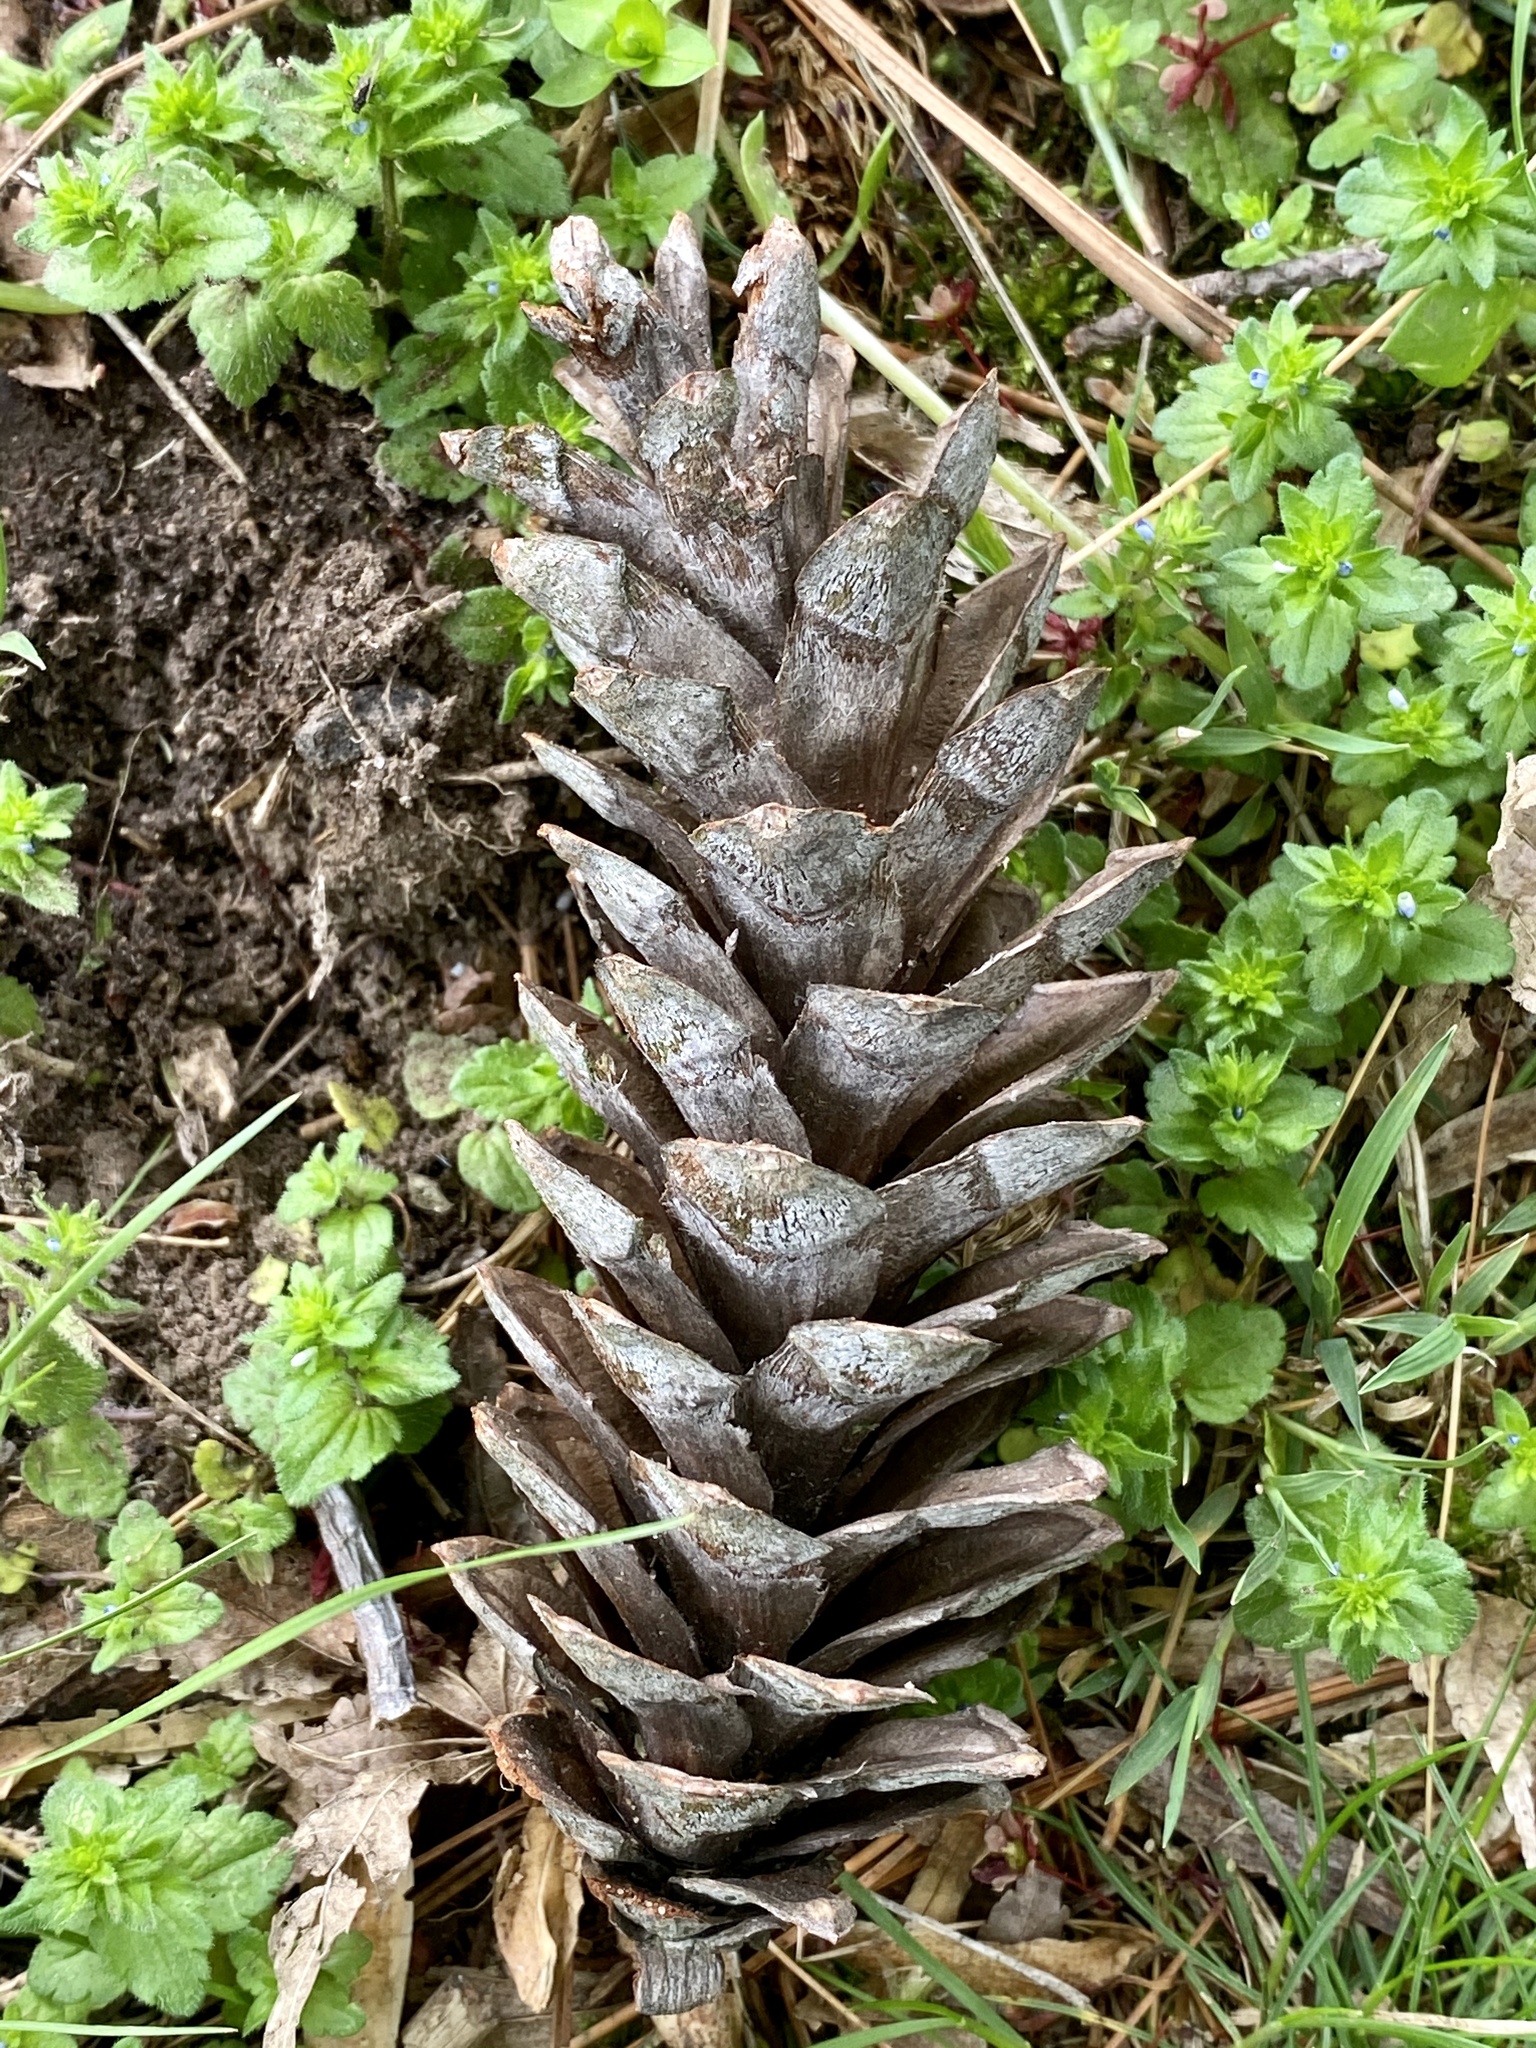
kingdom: Plantae
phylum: Tracheophyta
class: Pinopsida
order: Pinales
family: Pinaceae
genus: Pinus
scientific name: Pinus strobus
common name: Weymouth pine
